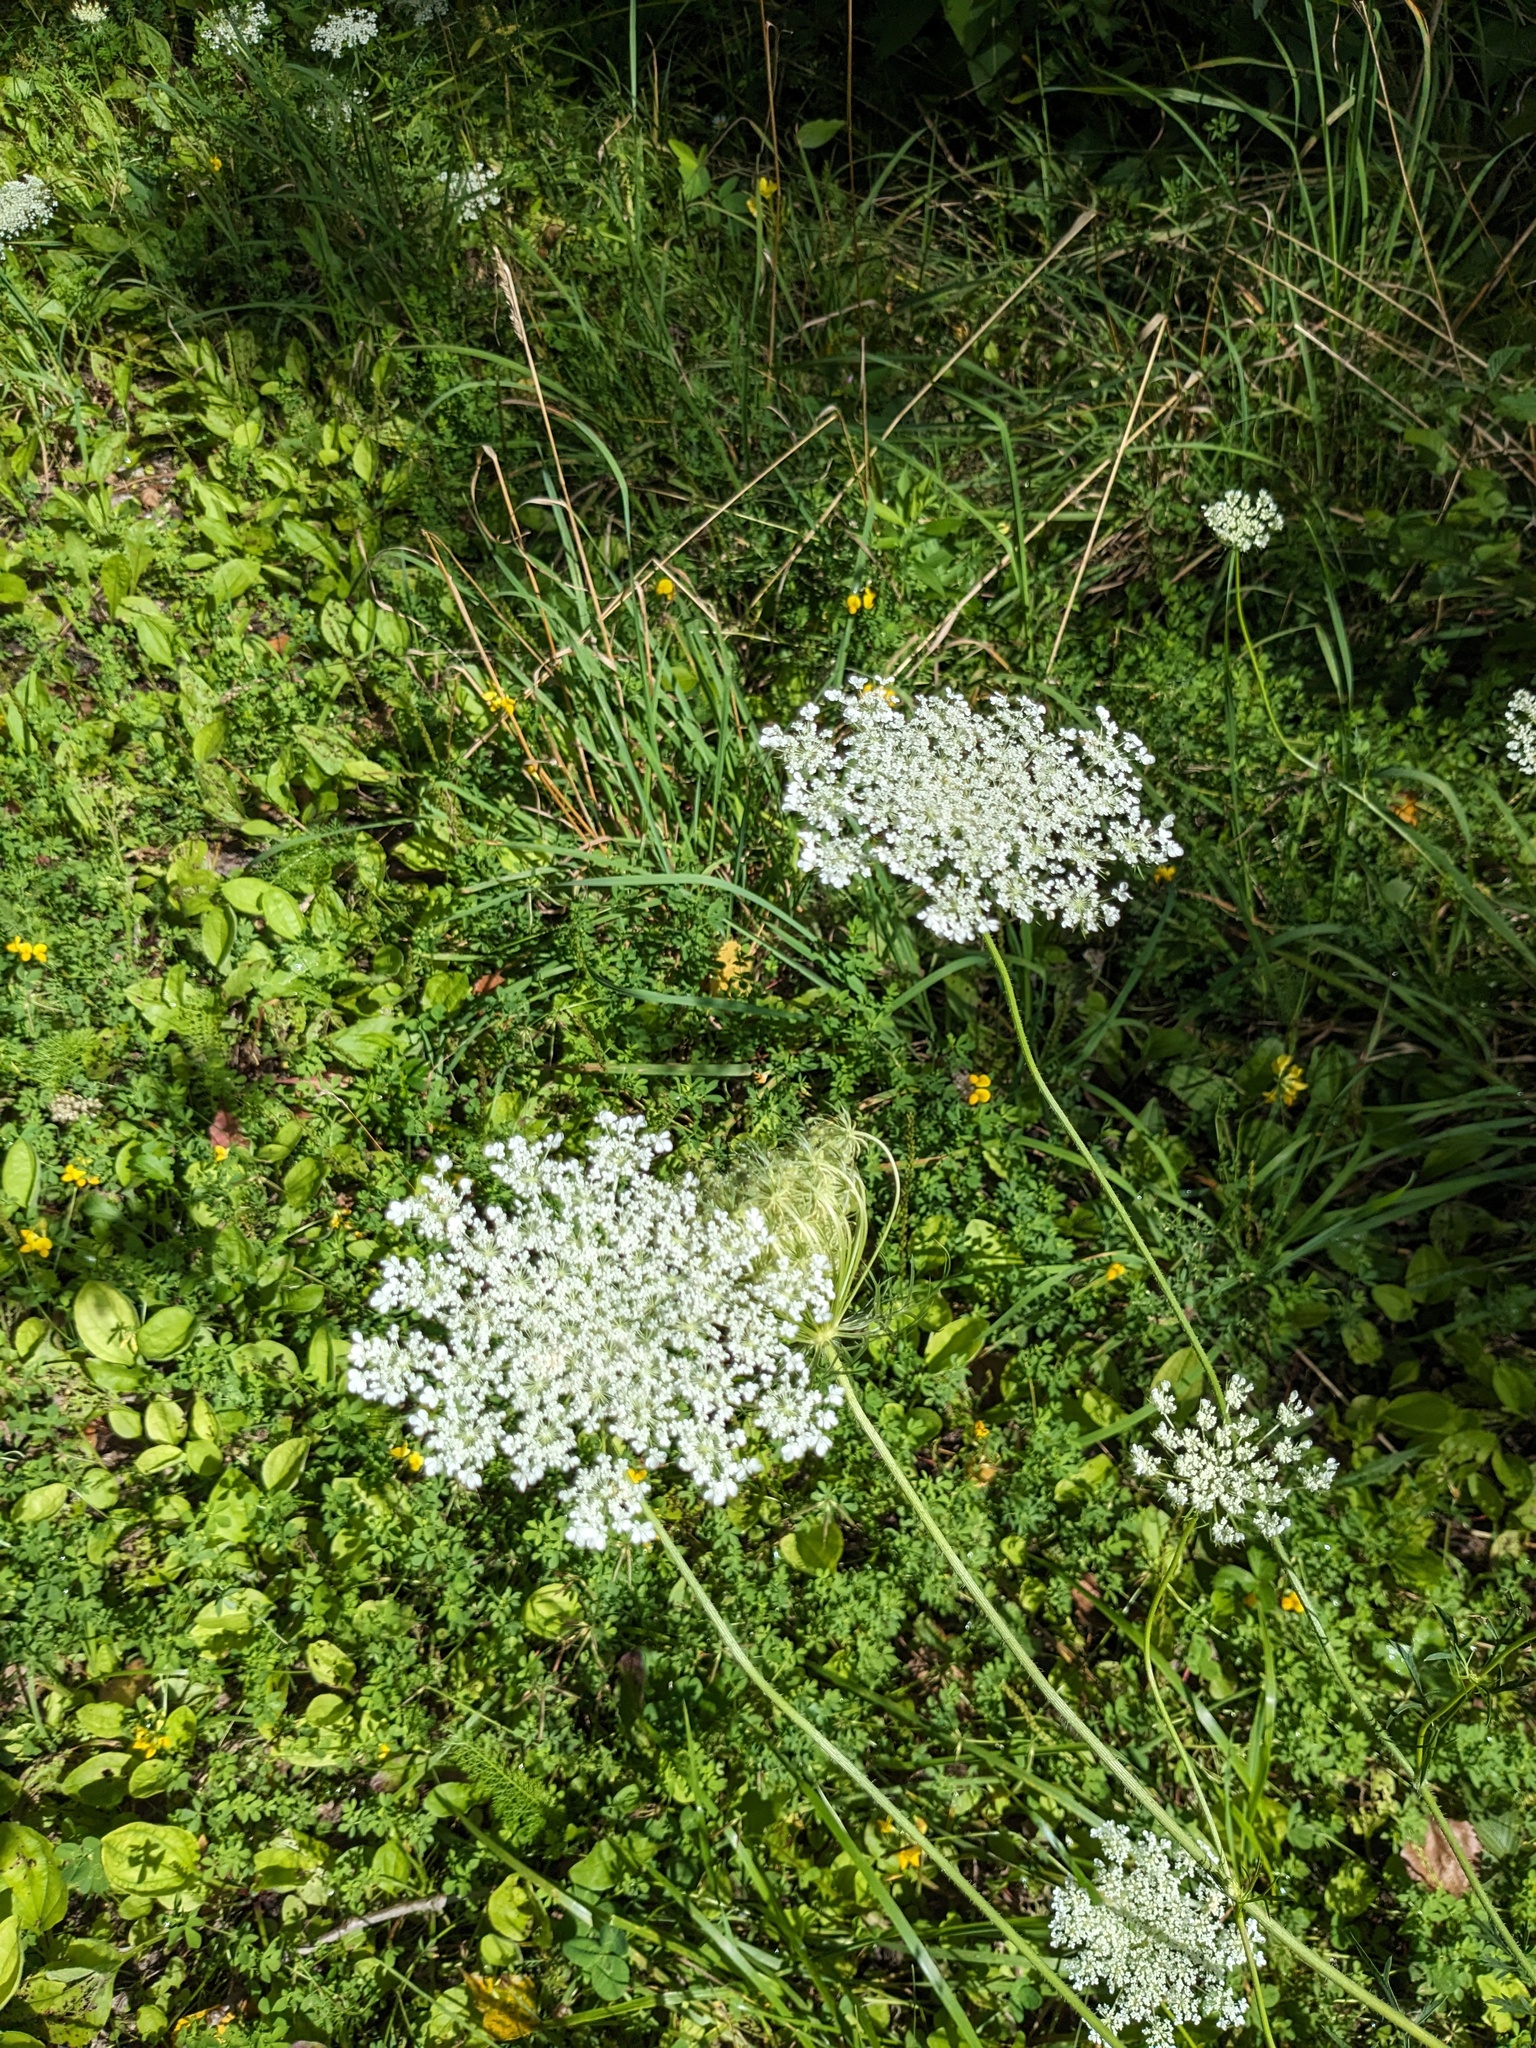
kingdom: Plantae
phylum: Tracheophyta
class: Magnoliopsida
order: Apiales
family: Apiaceae
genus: Daucus
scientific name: Daucus carota
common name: Wild carrot
